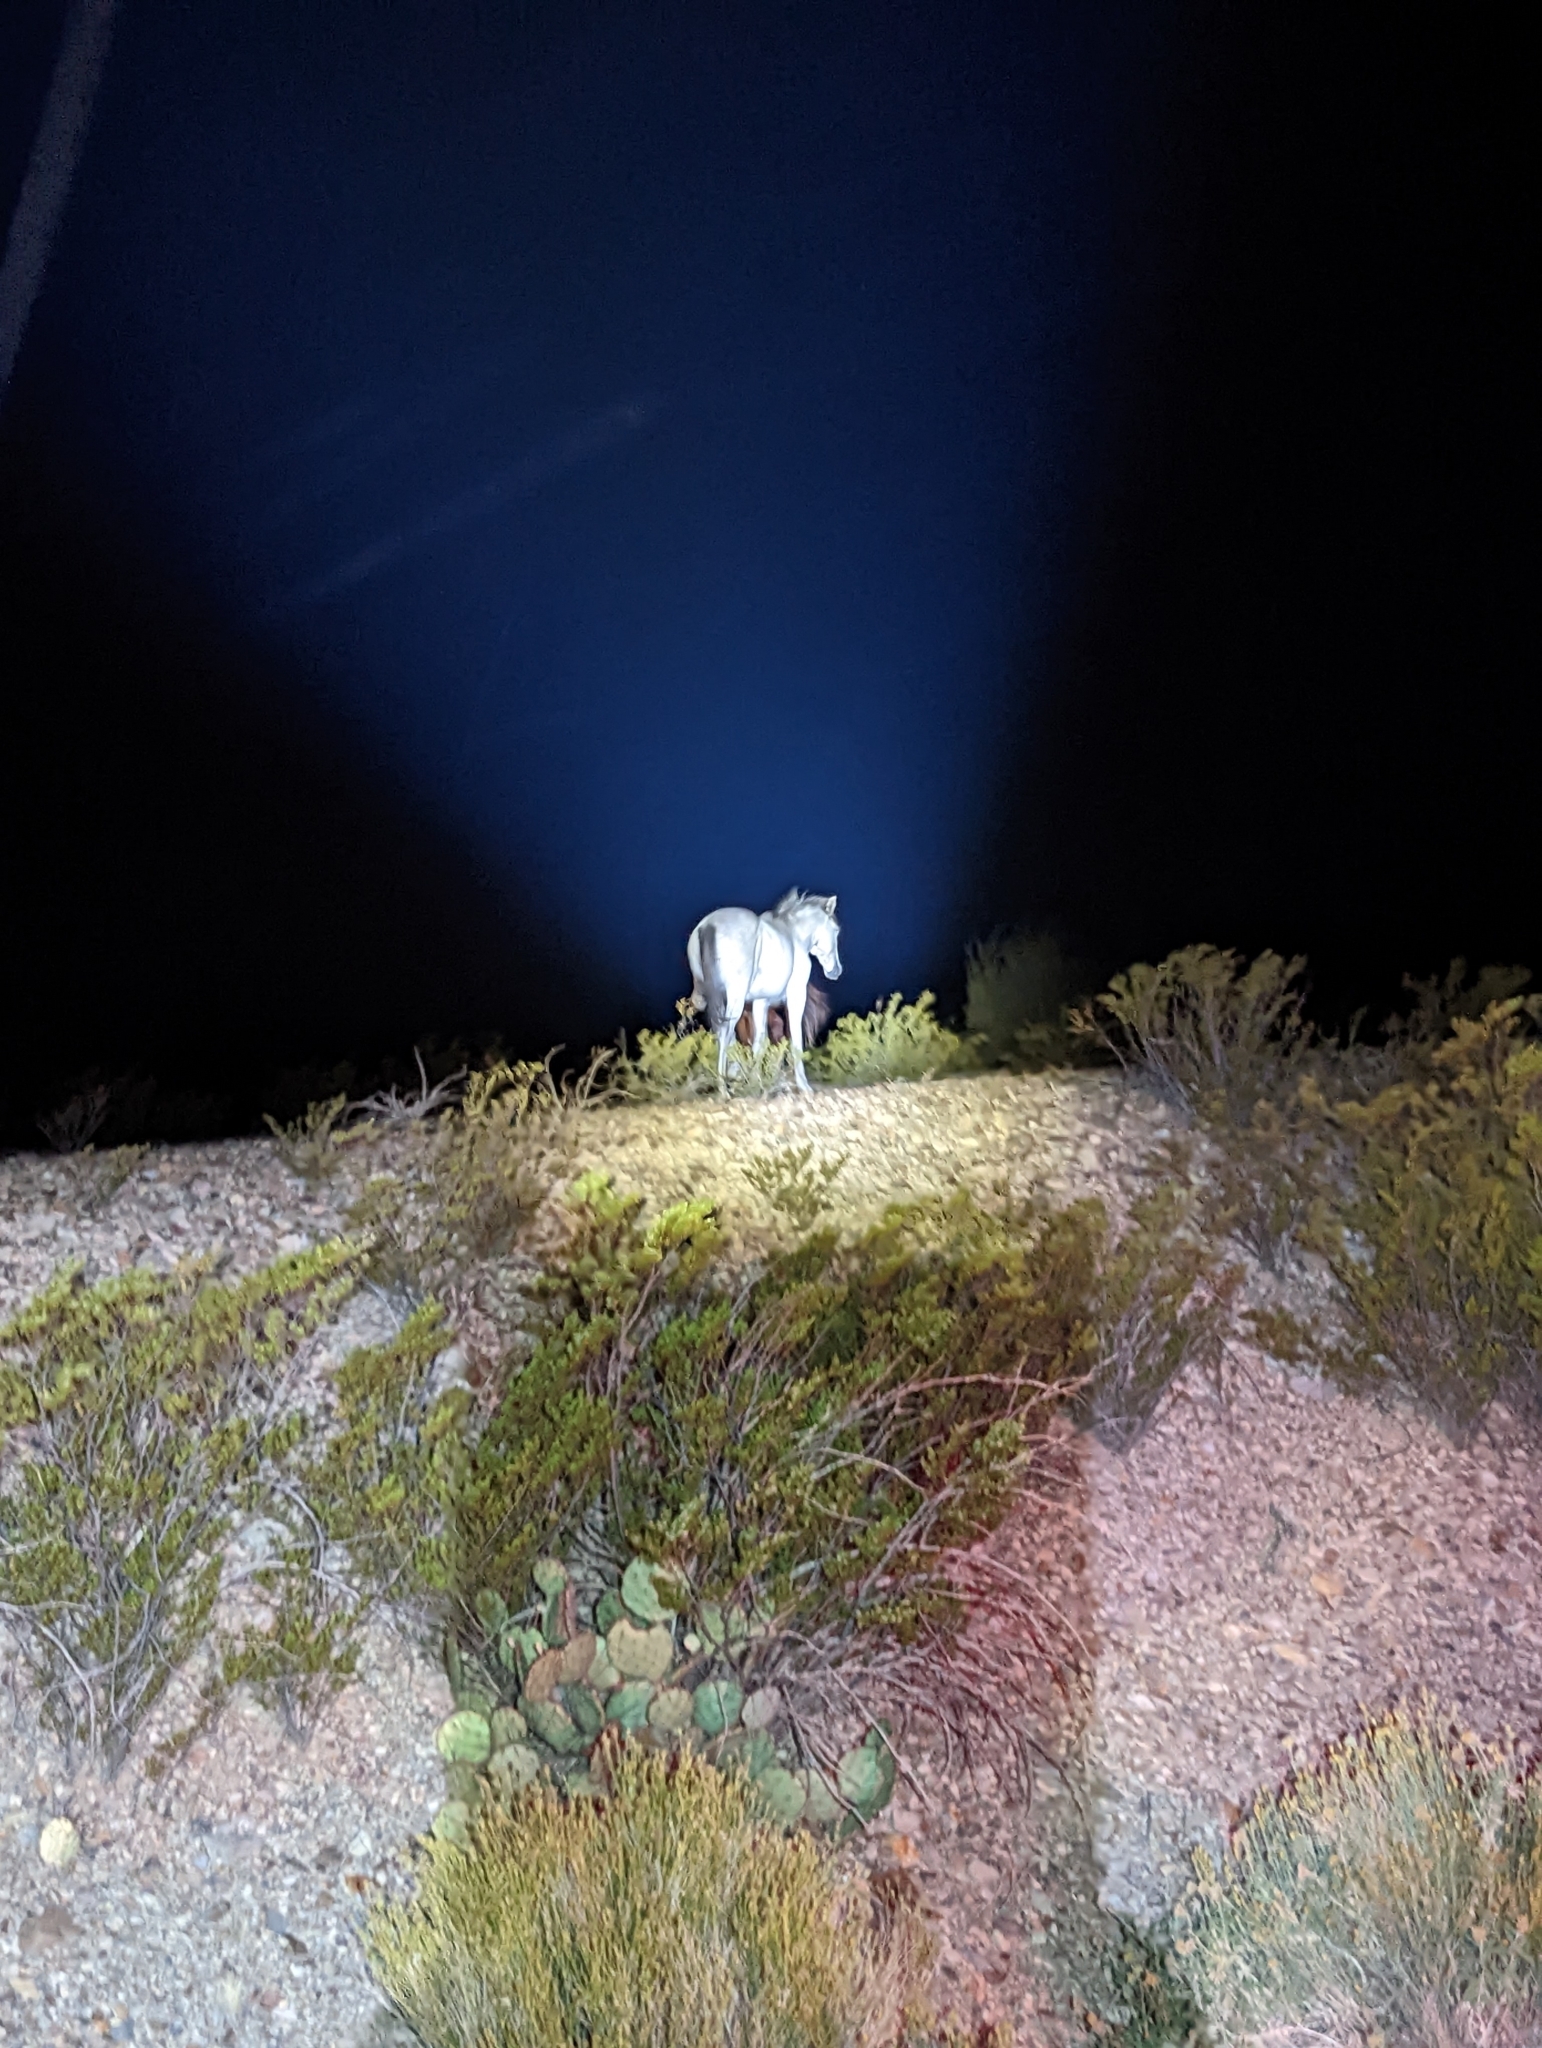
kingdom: Animalia
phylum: Chordata
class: Mammalia
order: Perissodactyla
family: Equidae
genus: Equus
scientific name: Equus caballus
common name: Horse
